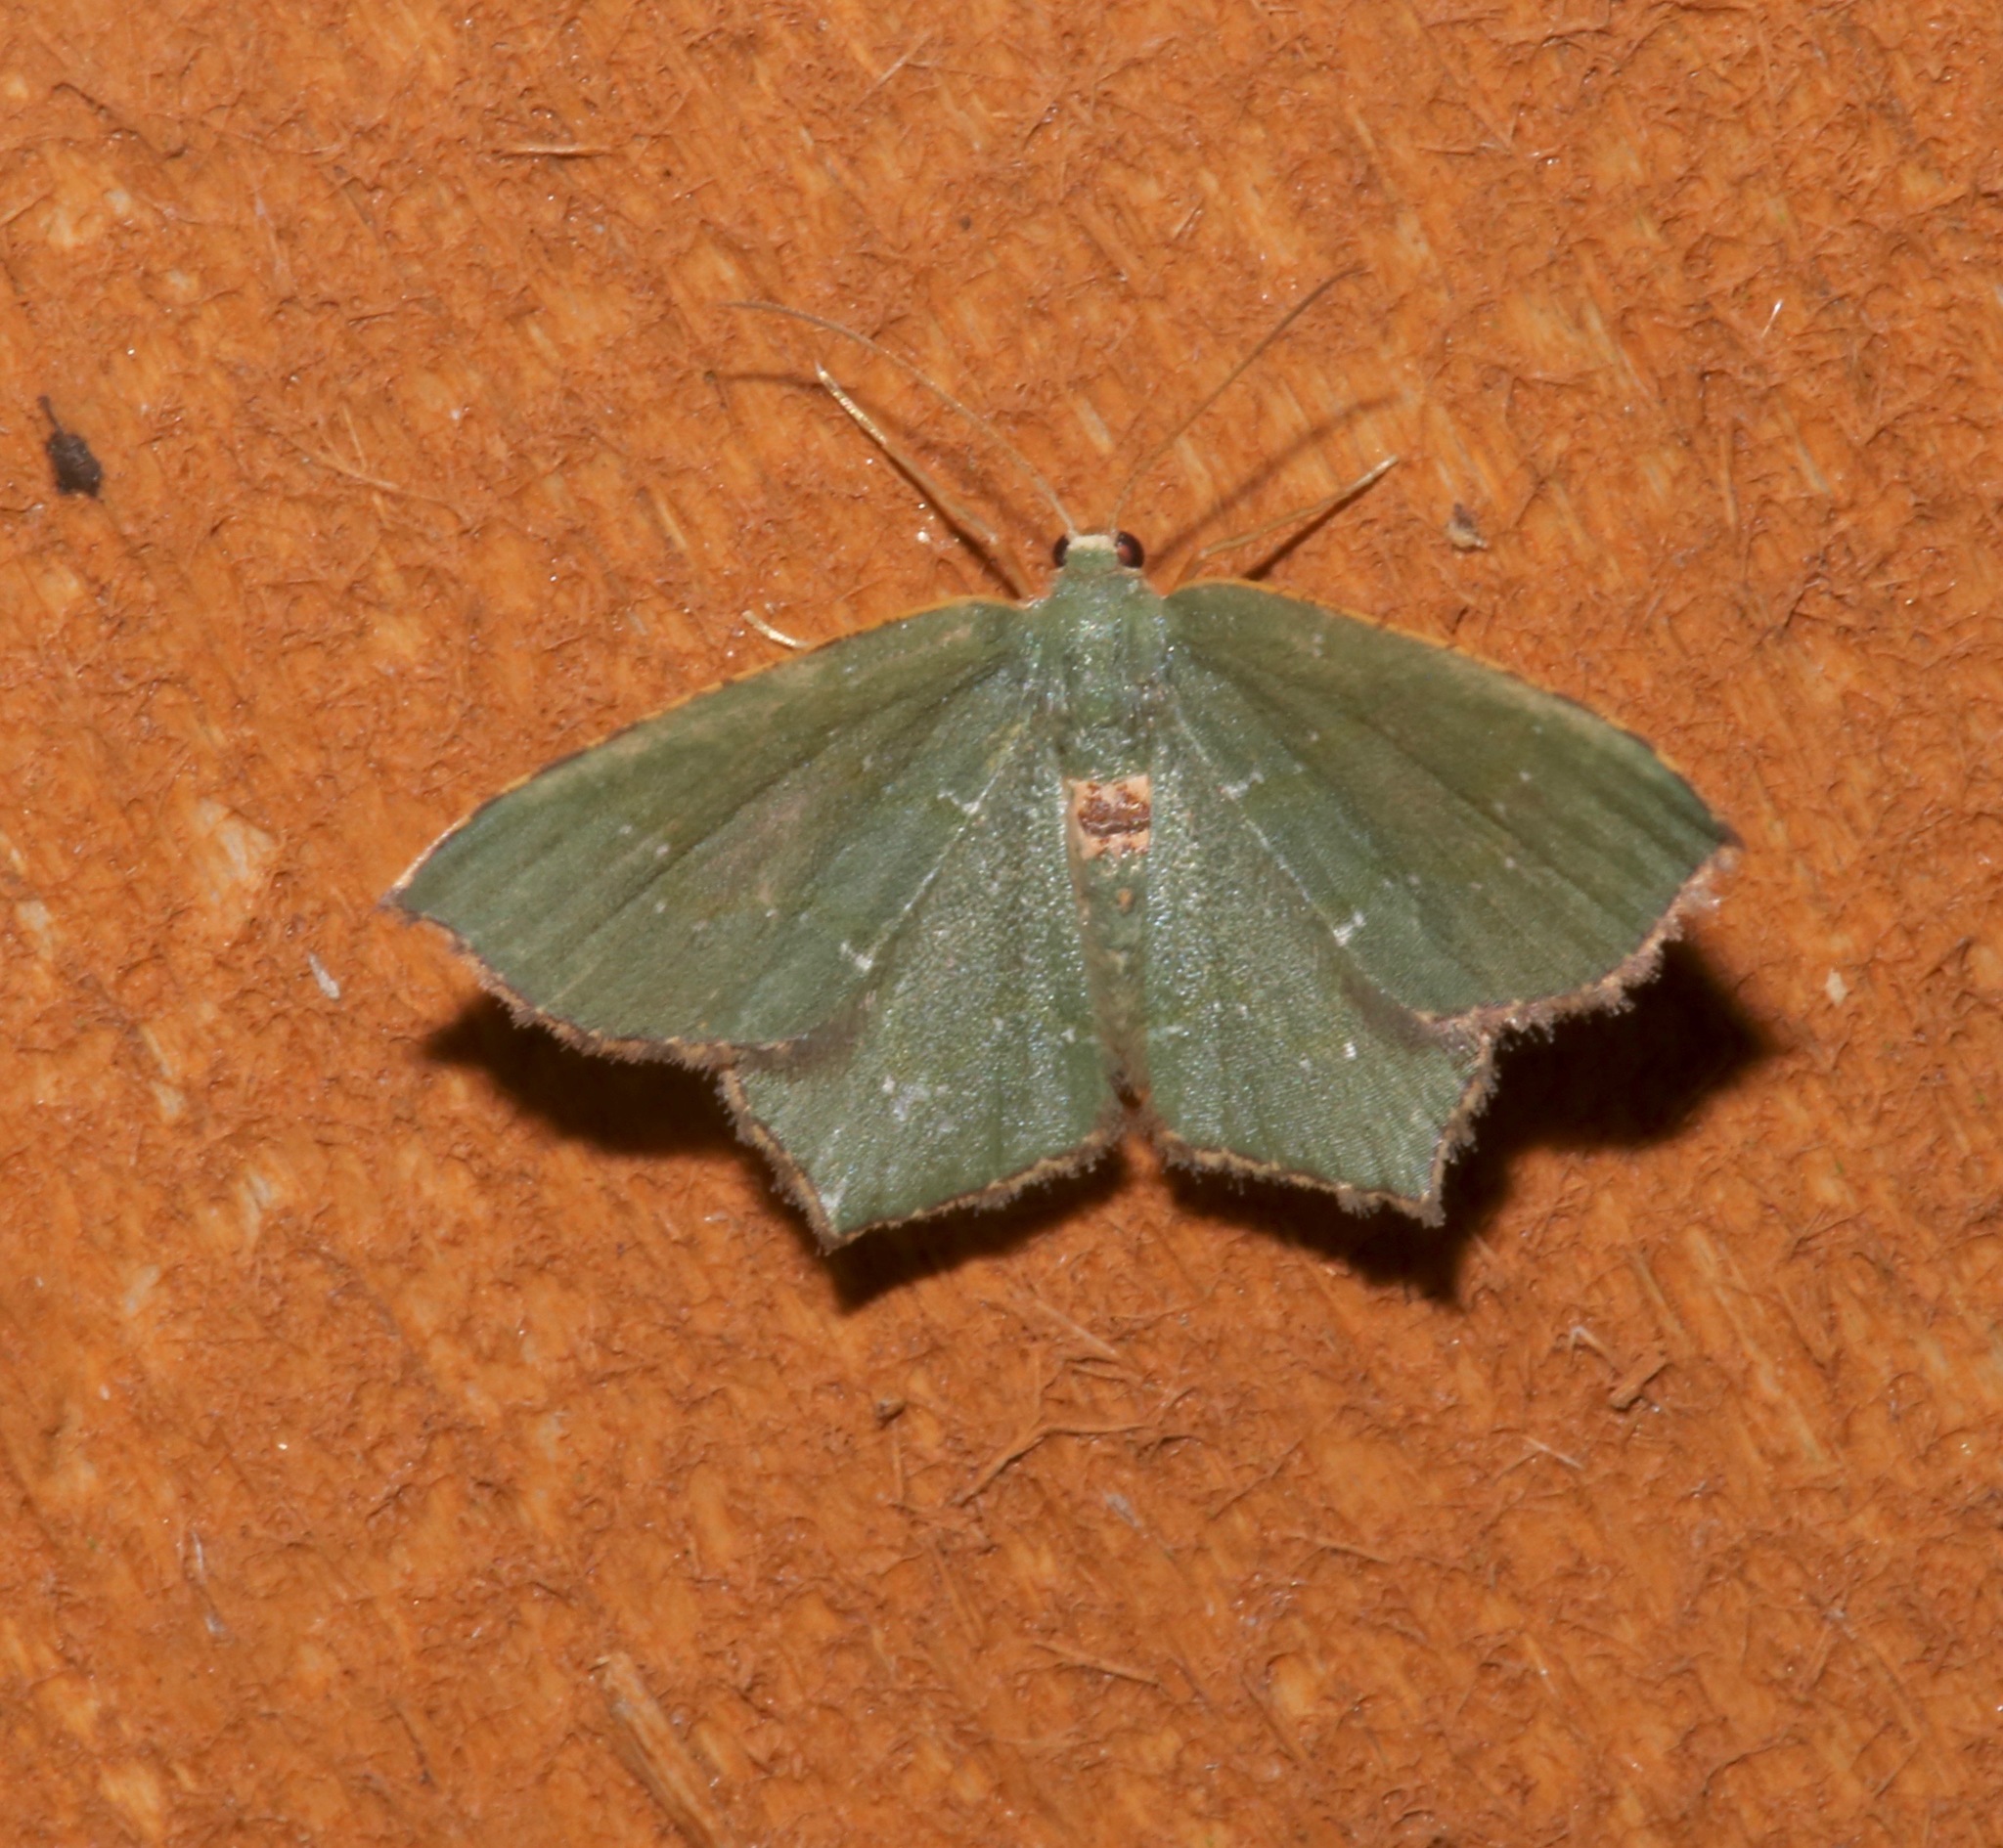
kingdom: Animalia
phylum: Arthropoda
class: Insecta
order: Lepidoptera
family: Geometridae
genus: Chloropteryx
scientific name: Chloropteryx tepperaria
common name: Angle winged emerald moth
